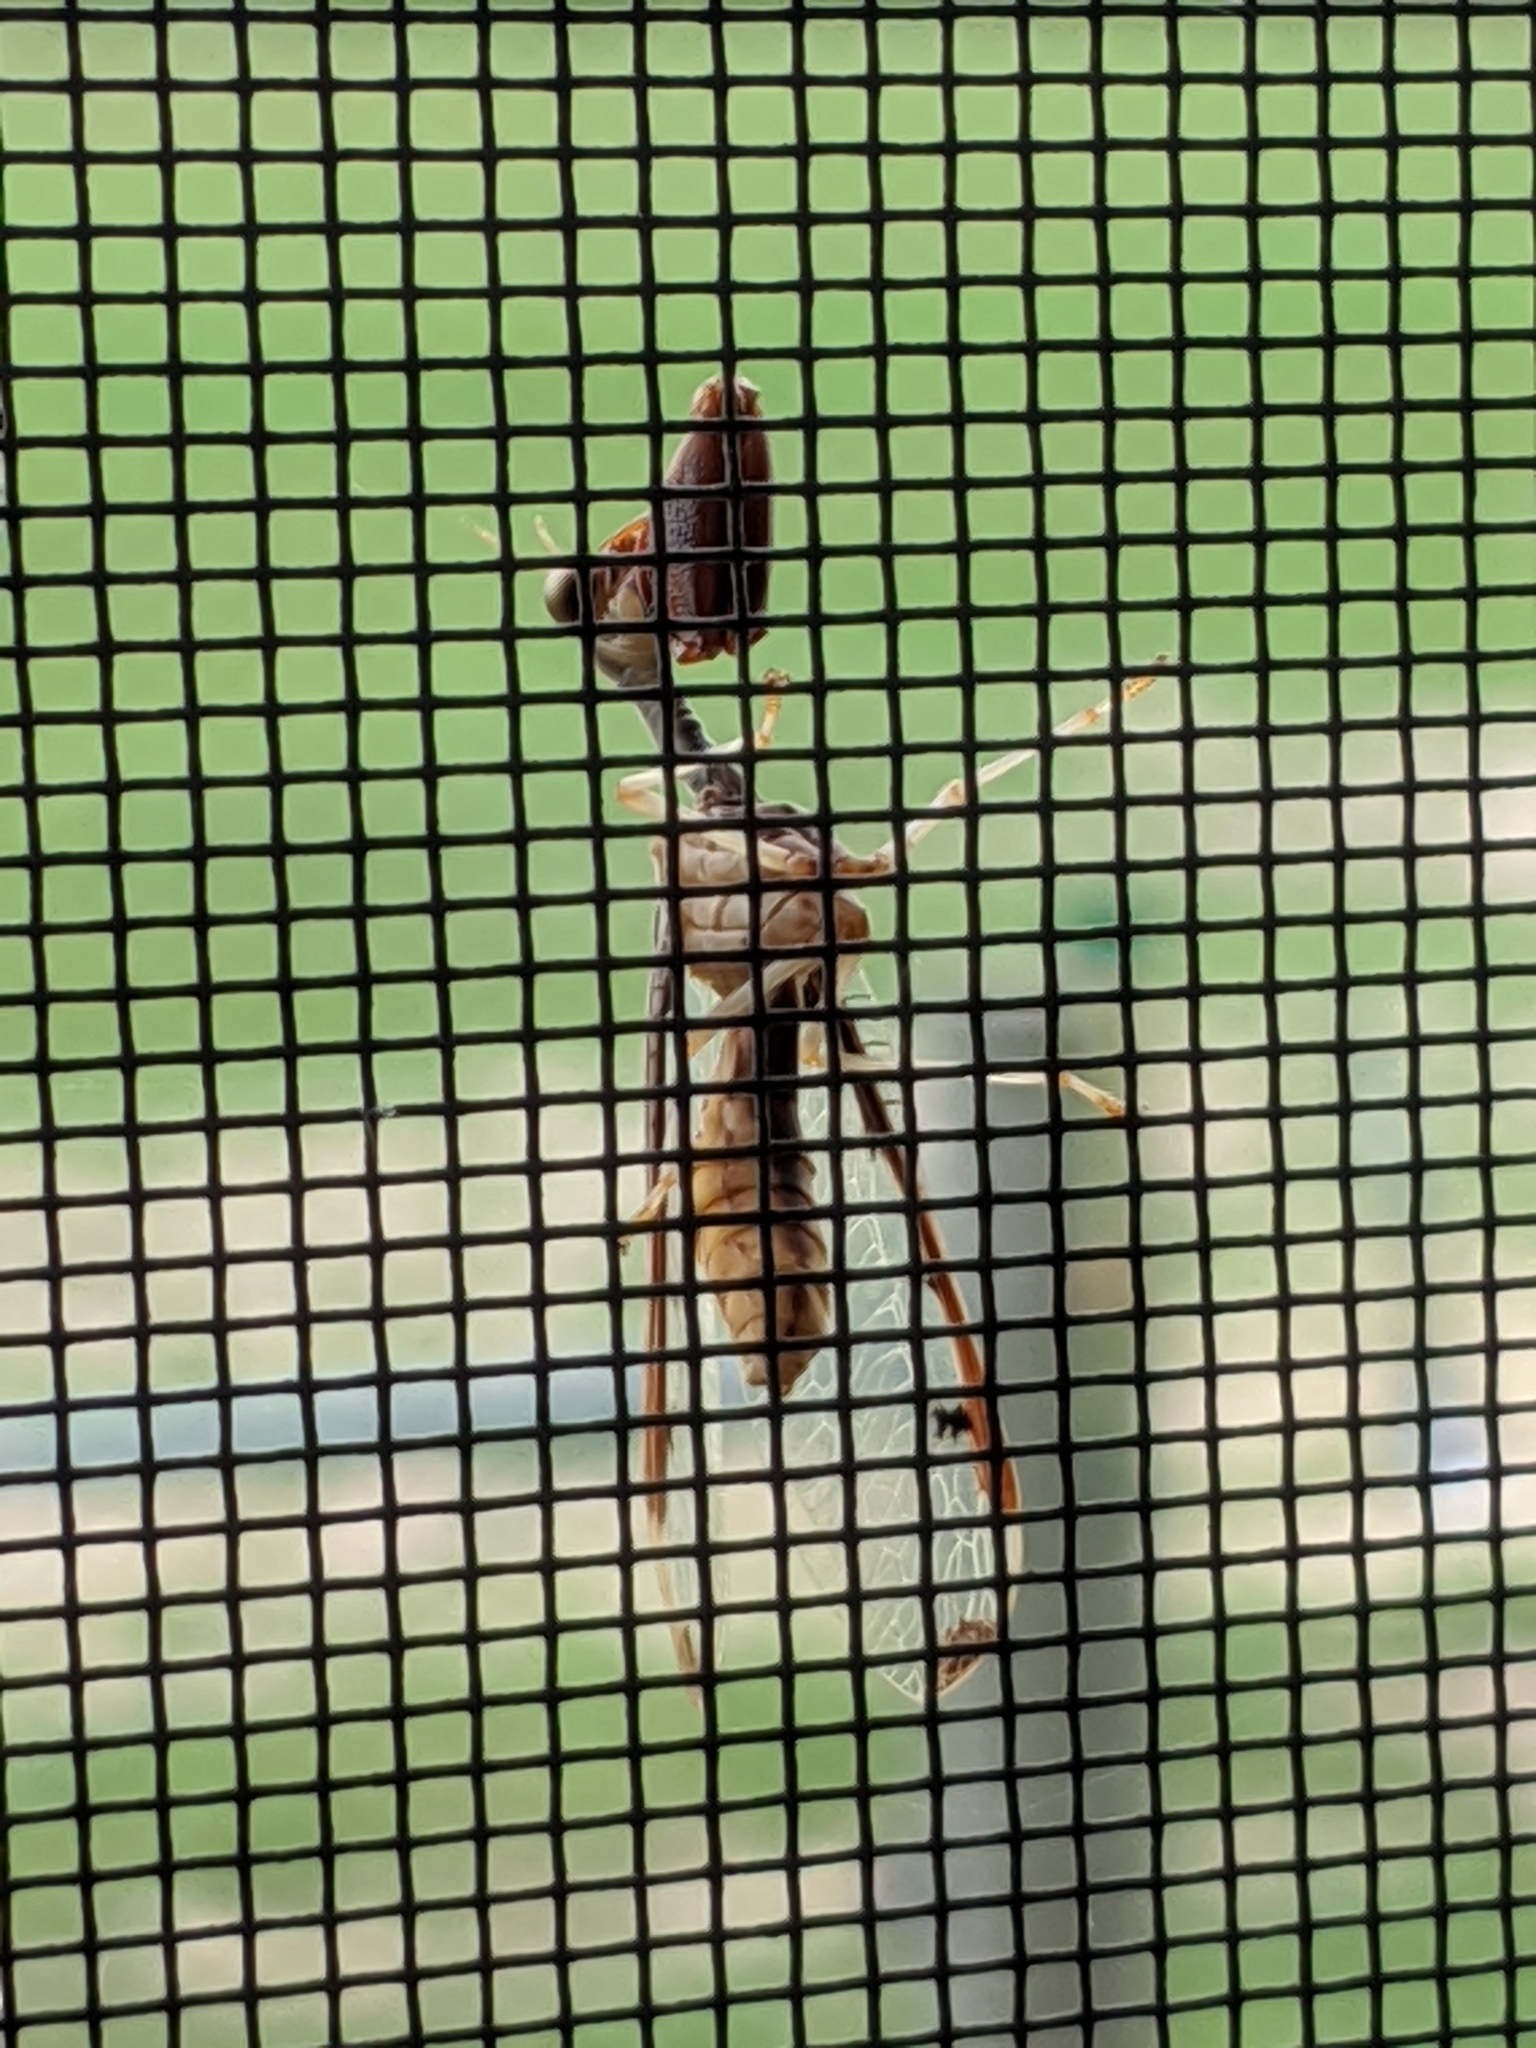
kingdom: Animalia
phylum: Arthropoda
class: Insecta
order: Neuroptera
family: Mantispidae
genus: Dicromantispa
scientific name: Dicromantispa interrupta
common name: Four-spotted mantidfly
